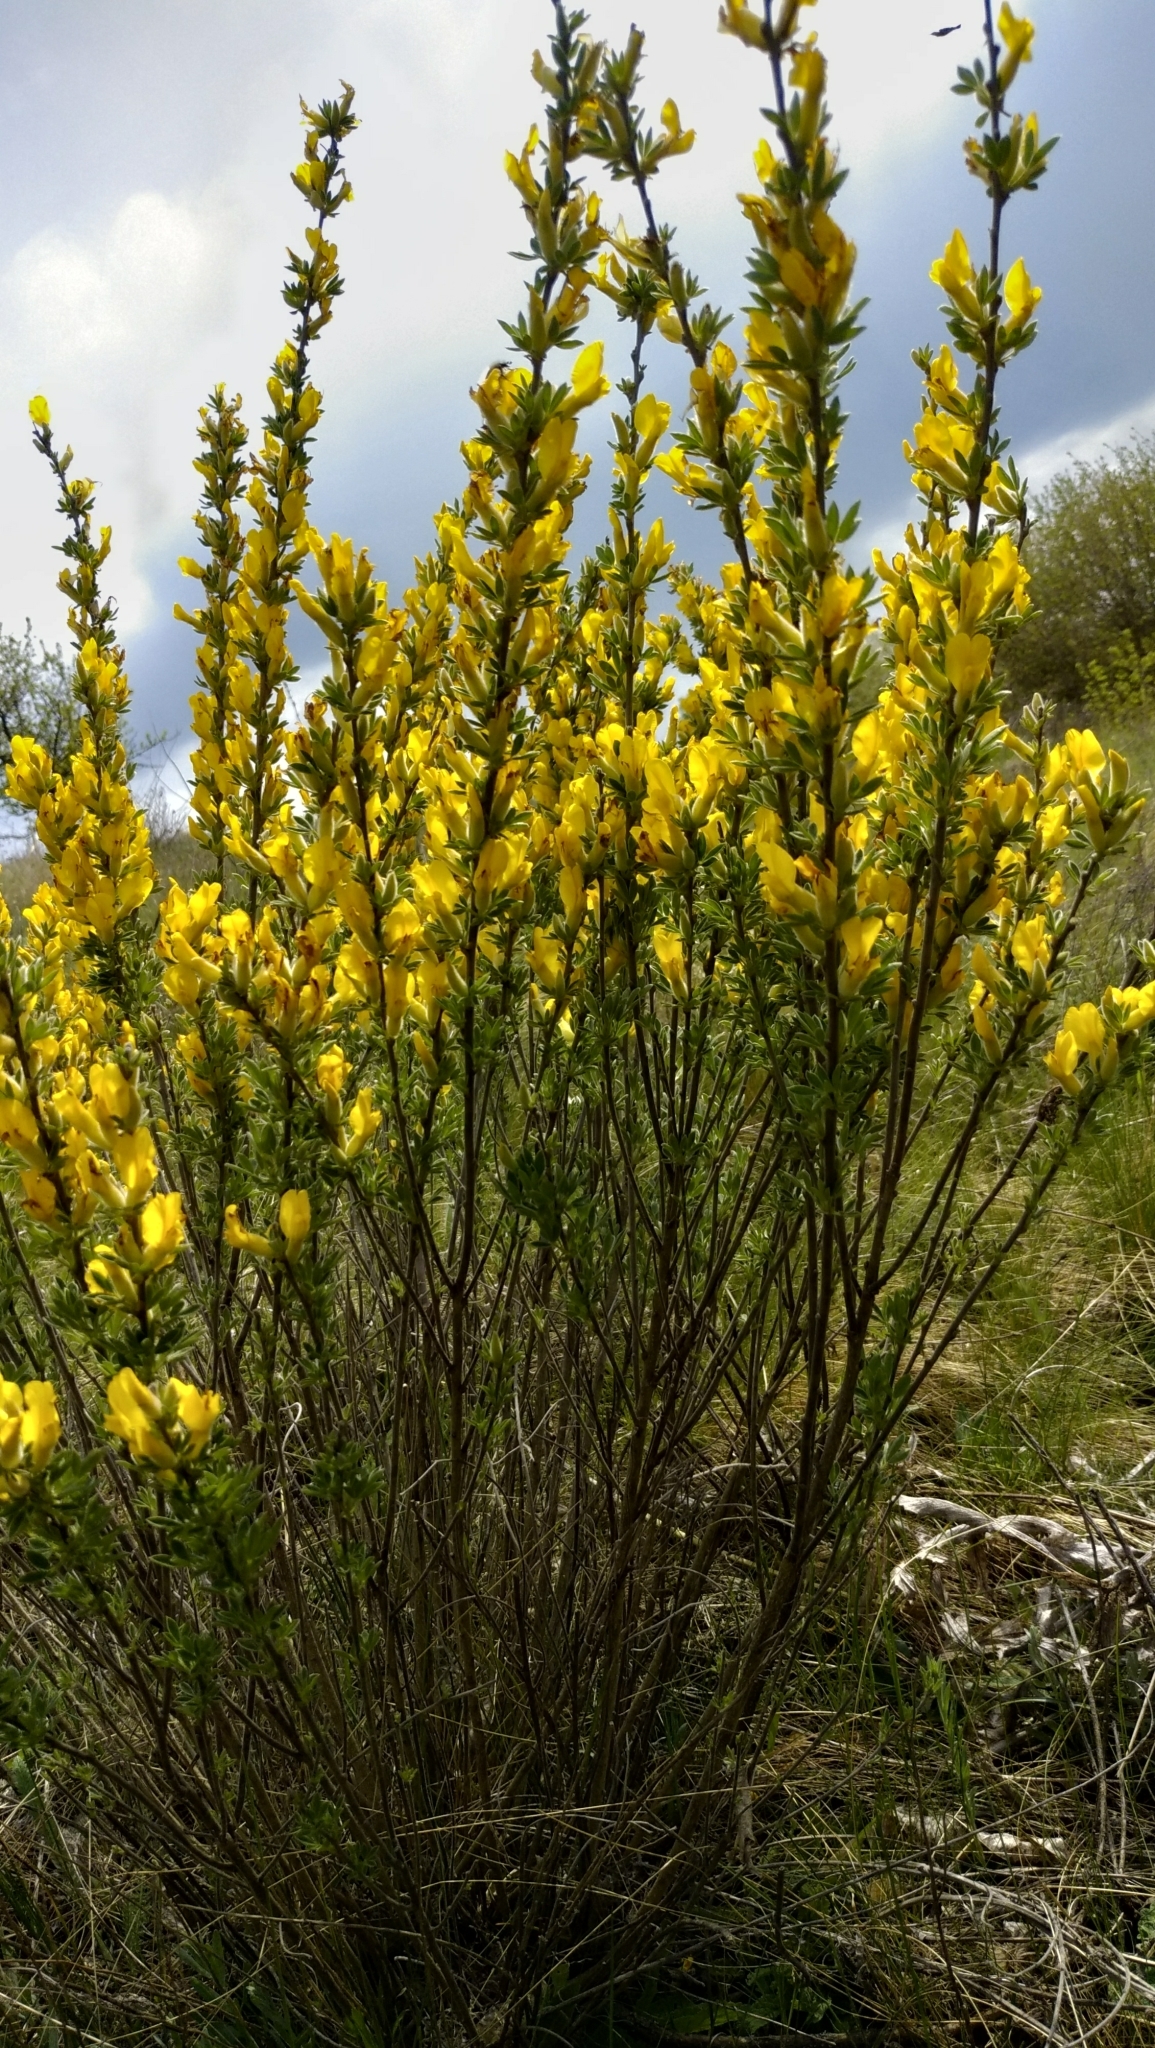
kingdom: Plantae
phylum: Tracheophyta
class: Magnoliopsida
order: Fabales
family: Fabaceae
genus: Chamaecytisus
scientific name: Chamaecytisus ruthenicus
